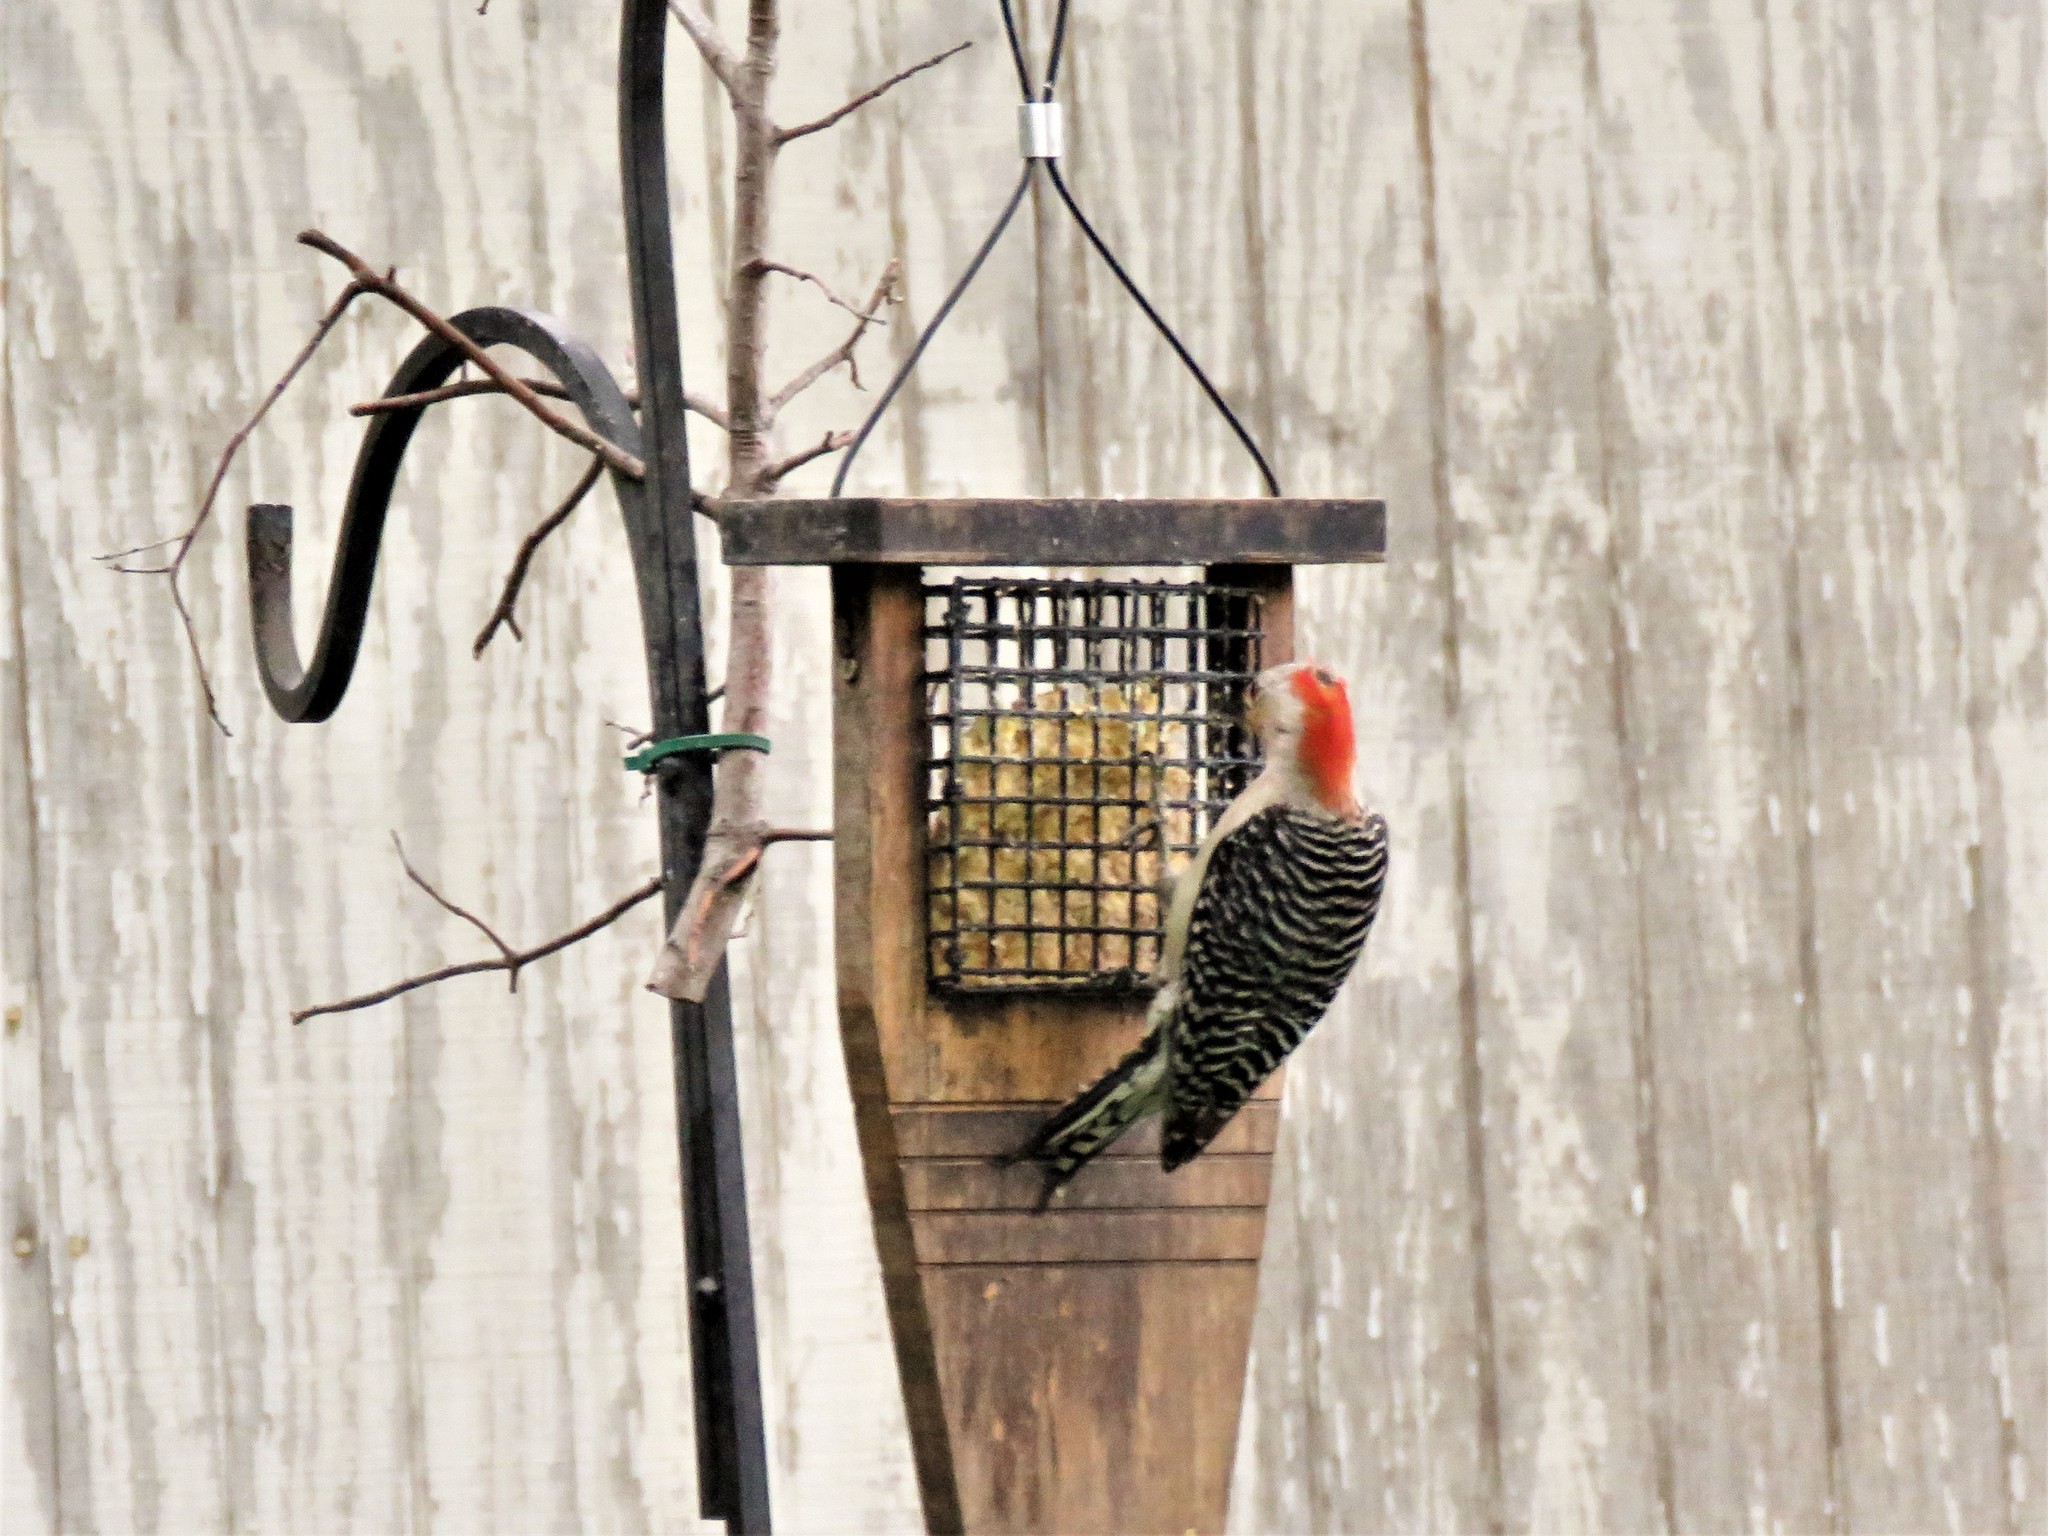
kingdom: Animalia
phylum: Chordata
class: Aves
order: Piciformes
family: Picidae
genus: Melanerpes
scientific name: Melanerpes carolinus
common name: Red-bellied woodpecker
